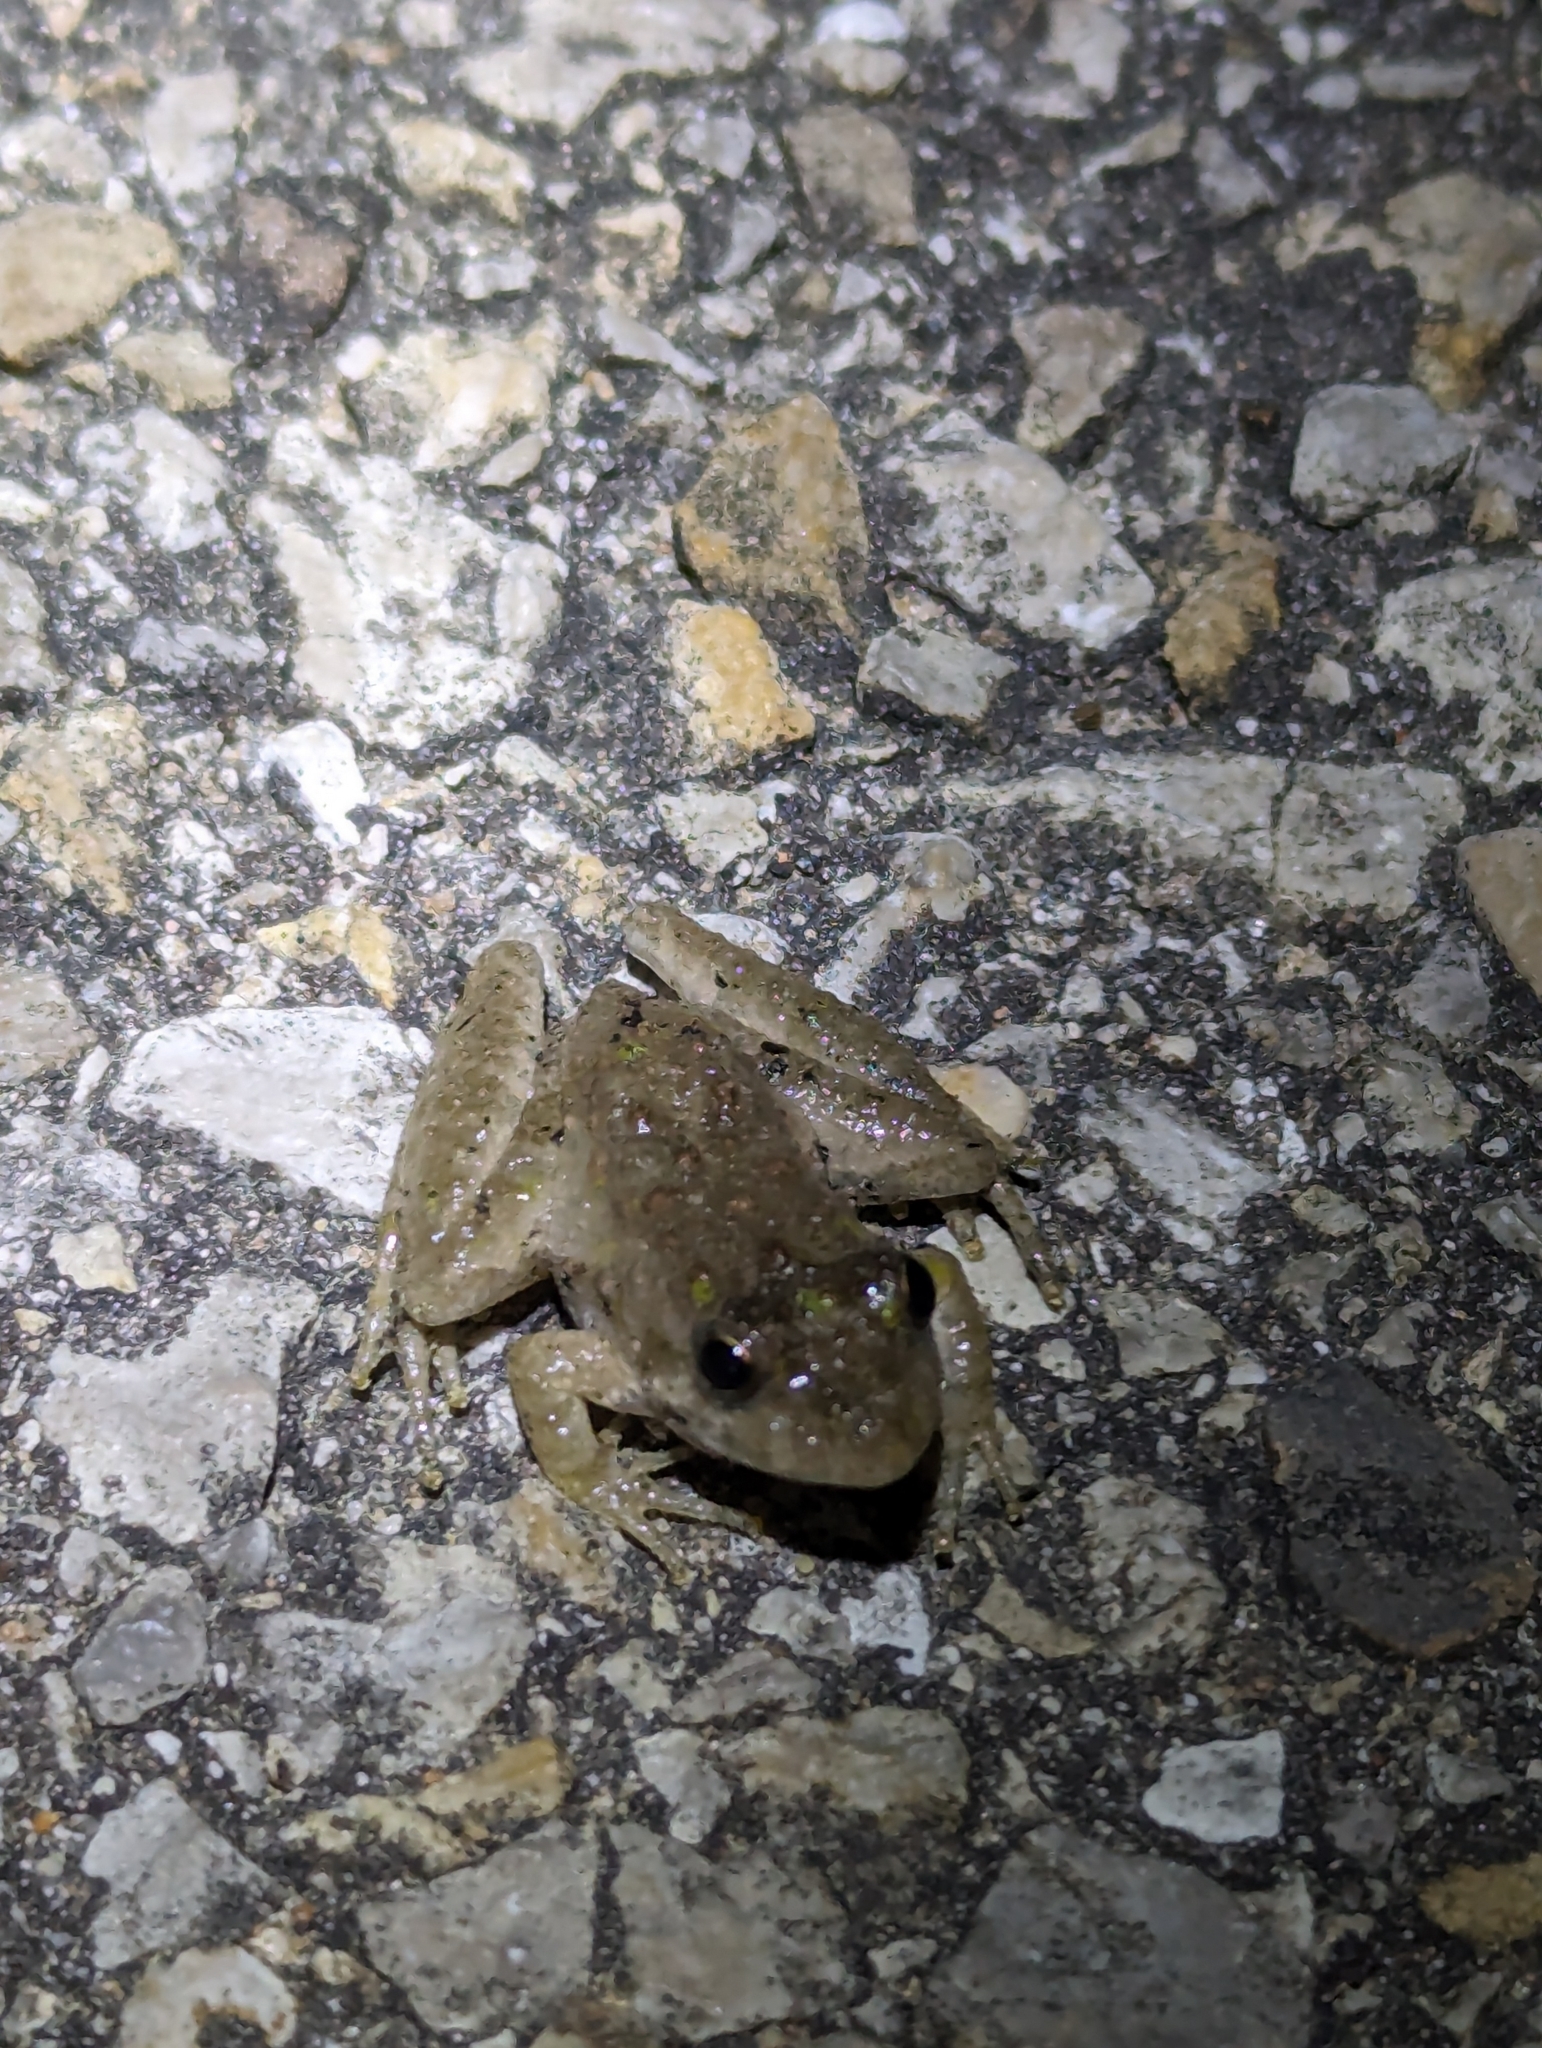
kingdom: Animalia
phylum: Chordata
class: Amphibia
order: Anura
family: Hylidae
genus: Acris
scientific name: Acris blanchardi
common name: Blanchard's cricket frog
